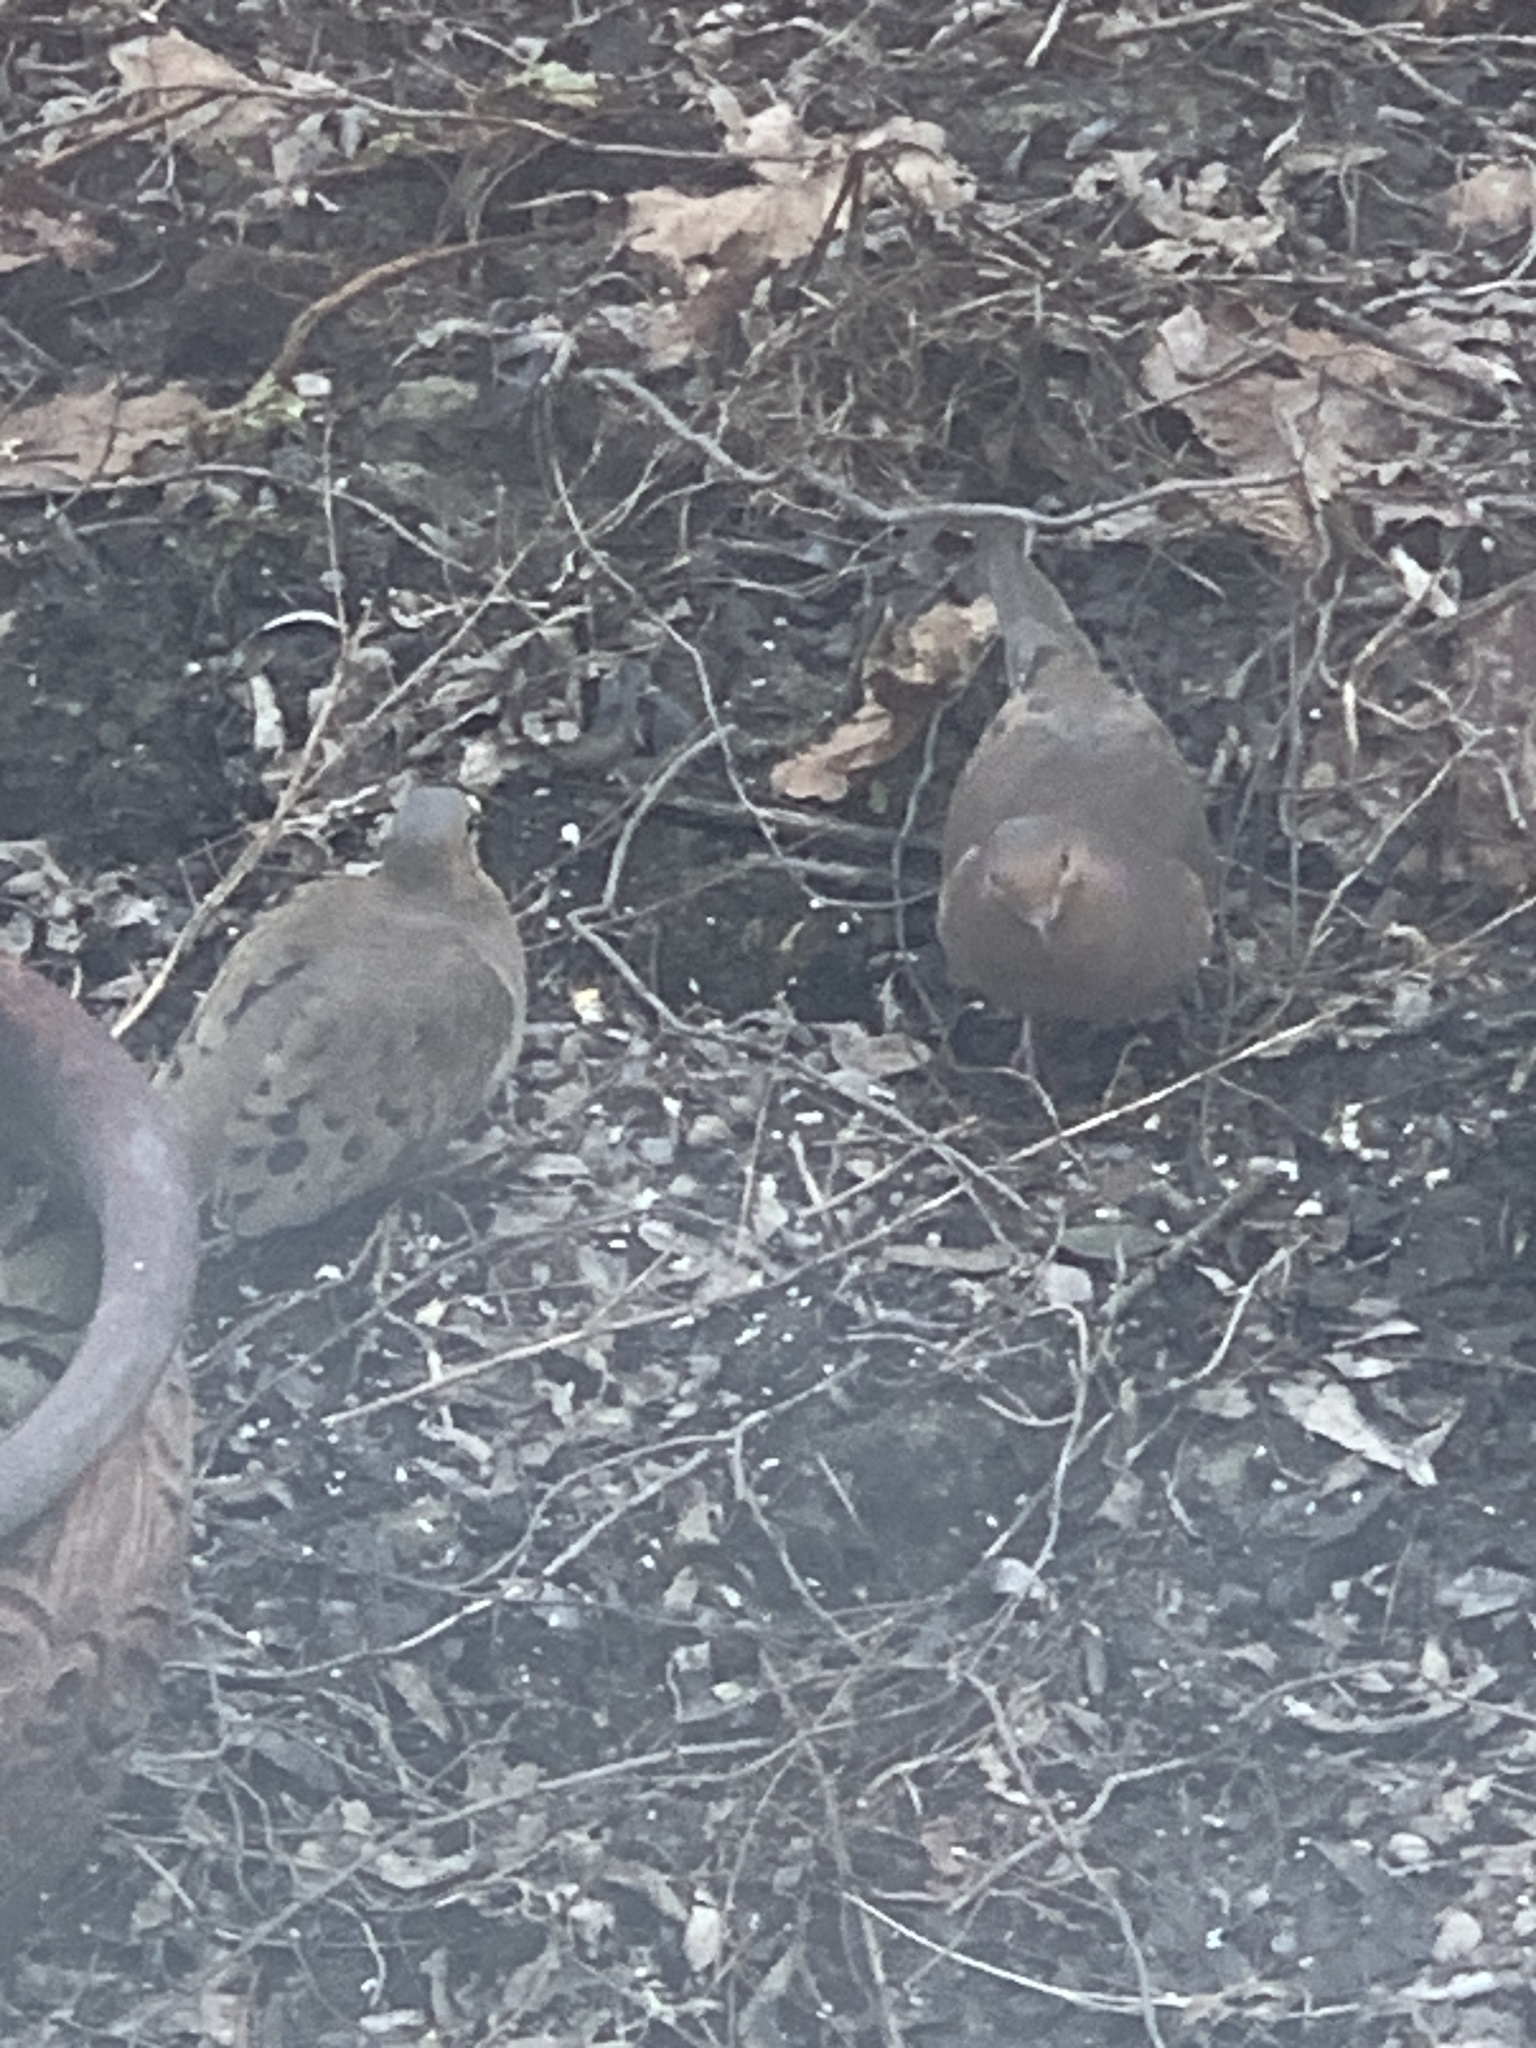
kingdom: Animalia
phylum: Chordata
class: Aves
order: Columbiformes
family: Columbidae
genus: Zenaida
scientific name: Zenaida macroura
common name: Mourning dove
